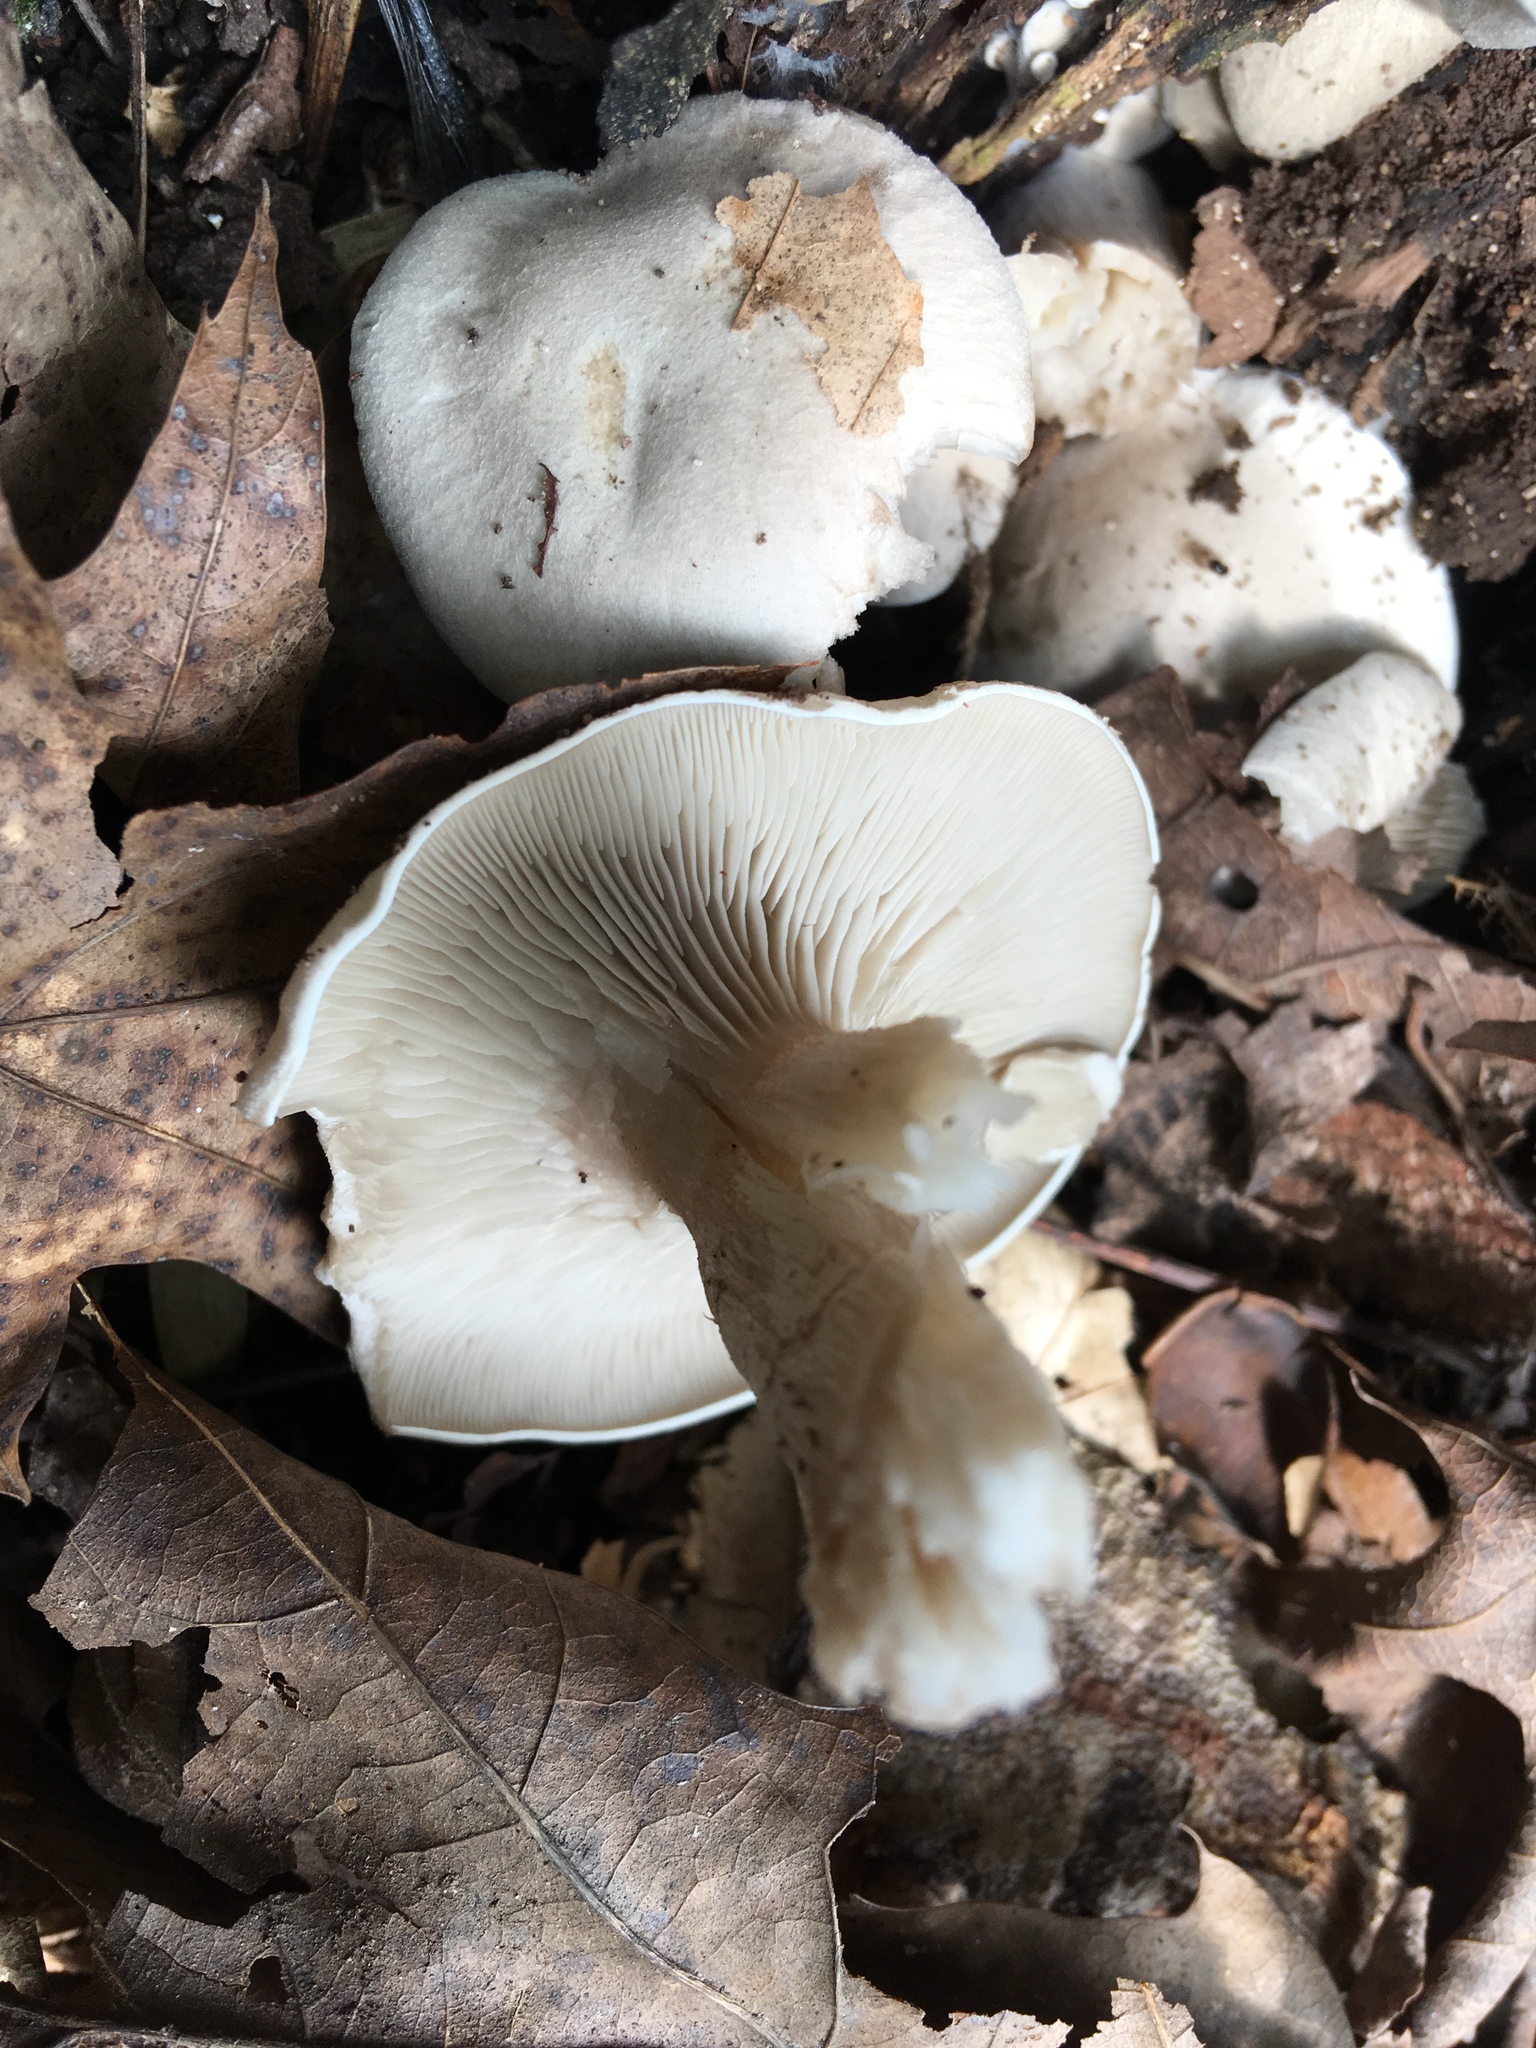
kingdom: Fungi
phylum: Basidiomycota
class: Agaricomycetes
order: Agaricales
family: Entolomataceae
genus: Entoloma
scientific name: Entoloma abortivum
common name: Aborted entoloma
